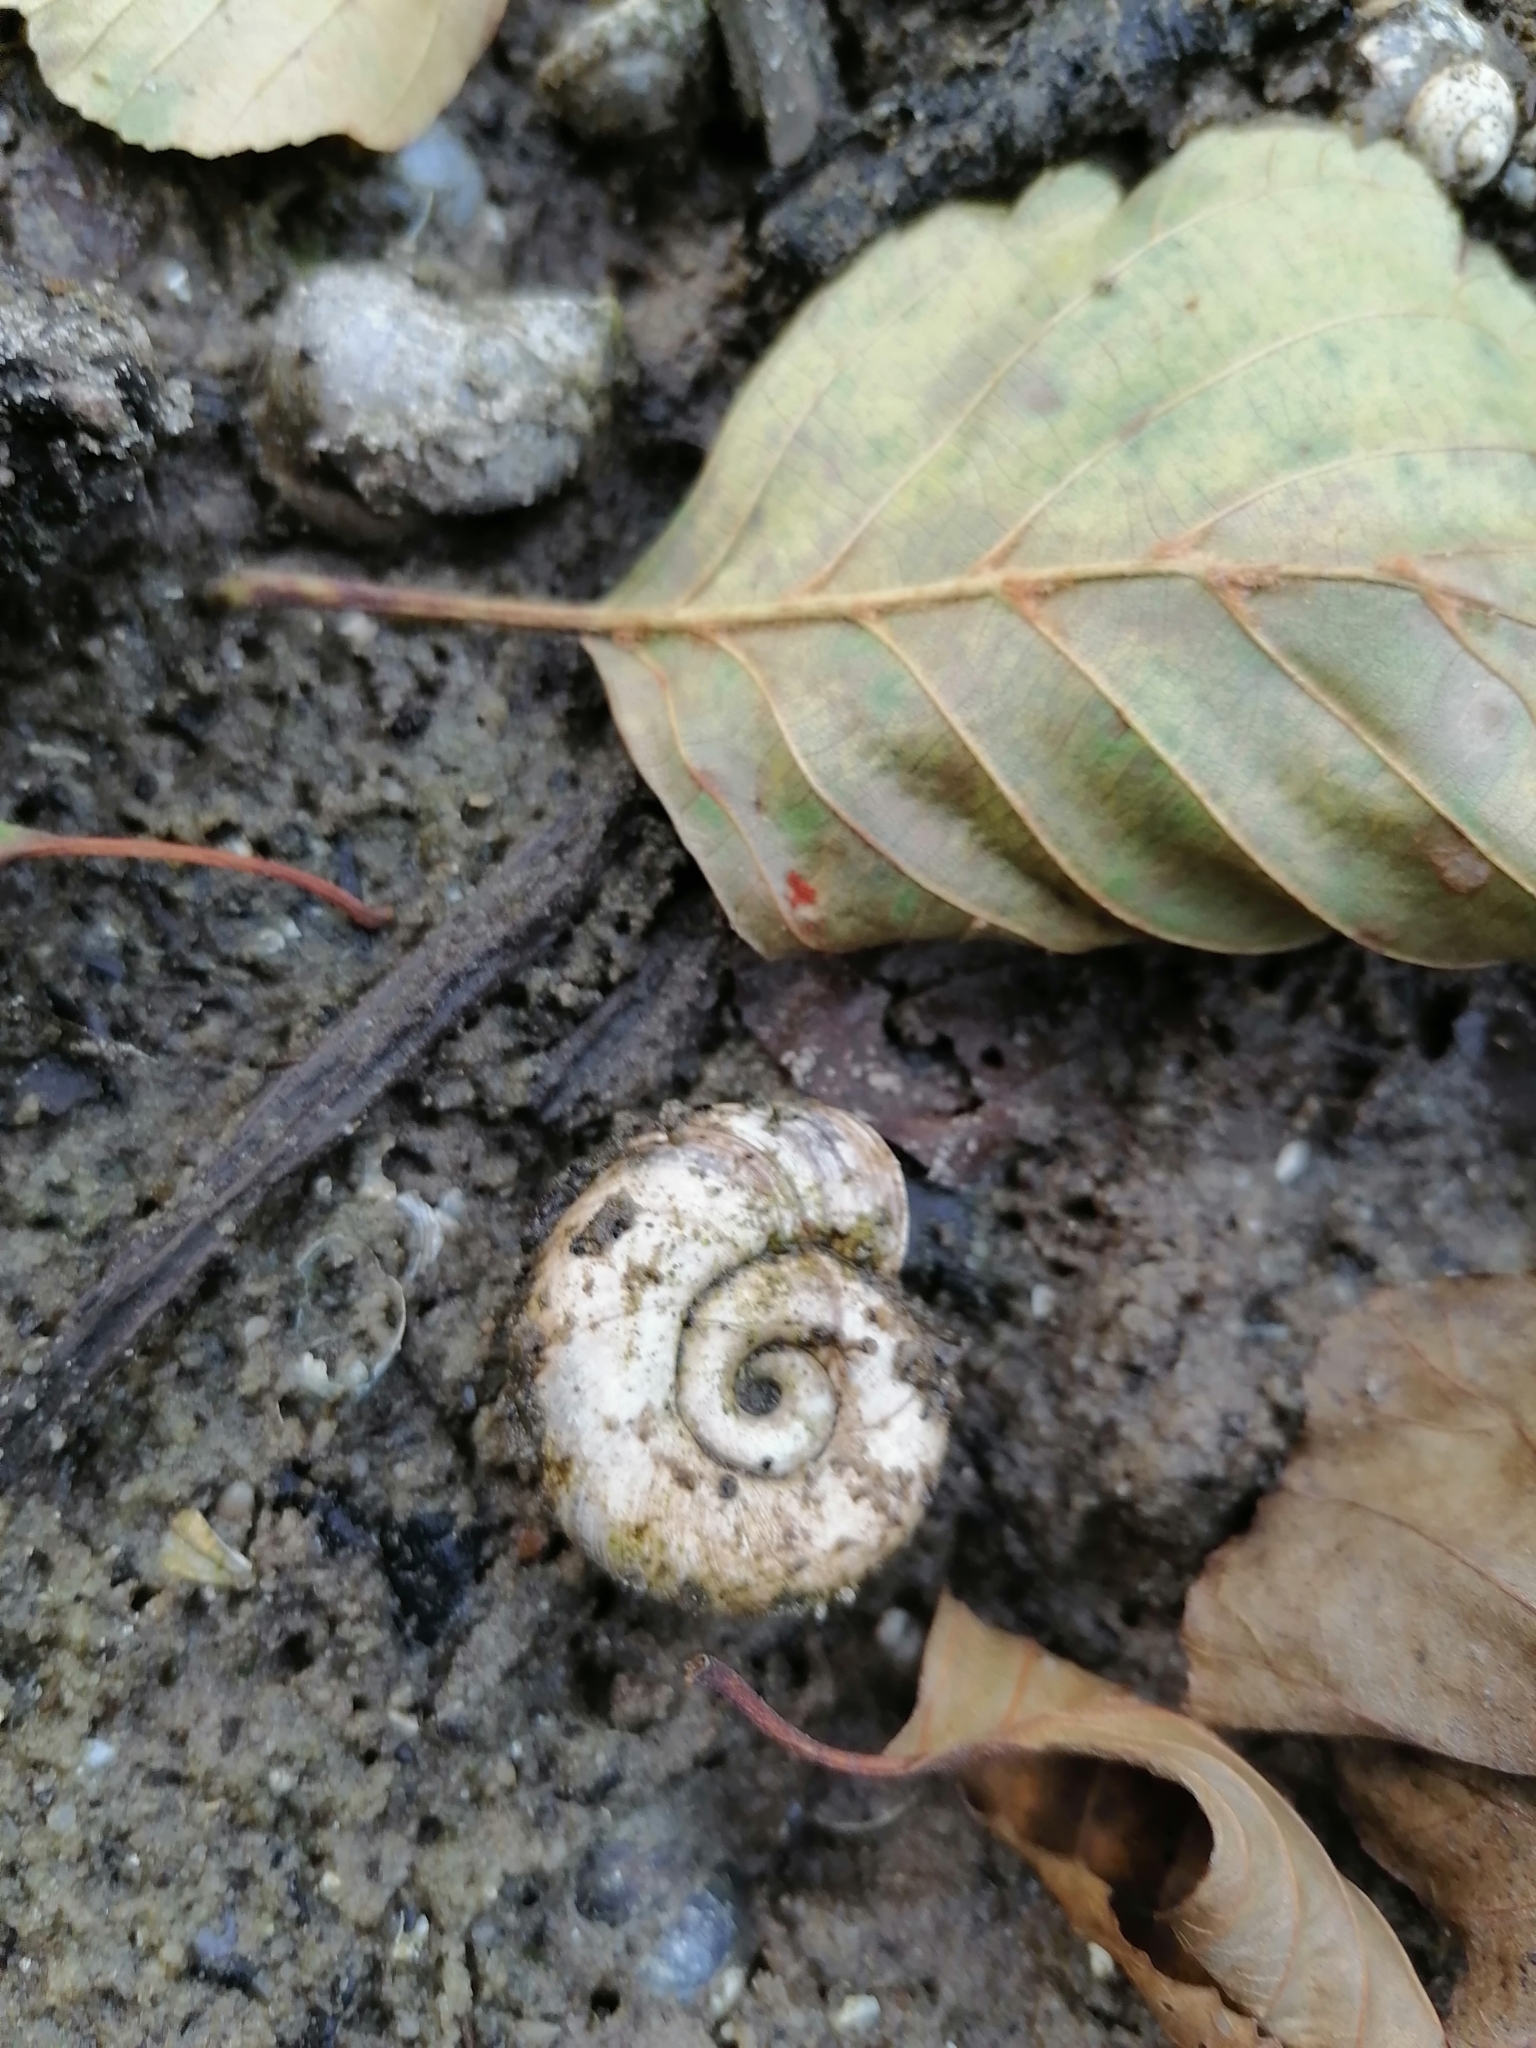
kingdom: Animalia
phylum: Mollusca
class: Gastropoda
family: Planorbidae
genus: Planorbarius
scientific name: Planorbarius corneus
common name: Great ramshorn
